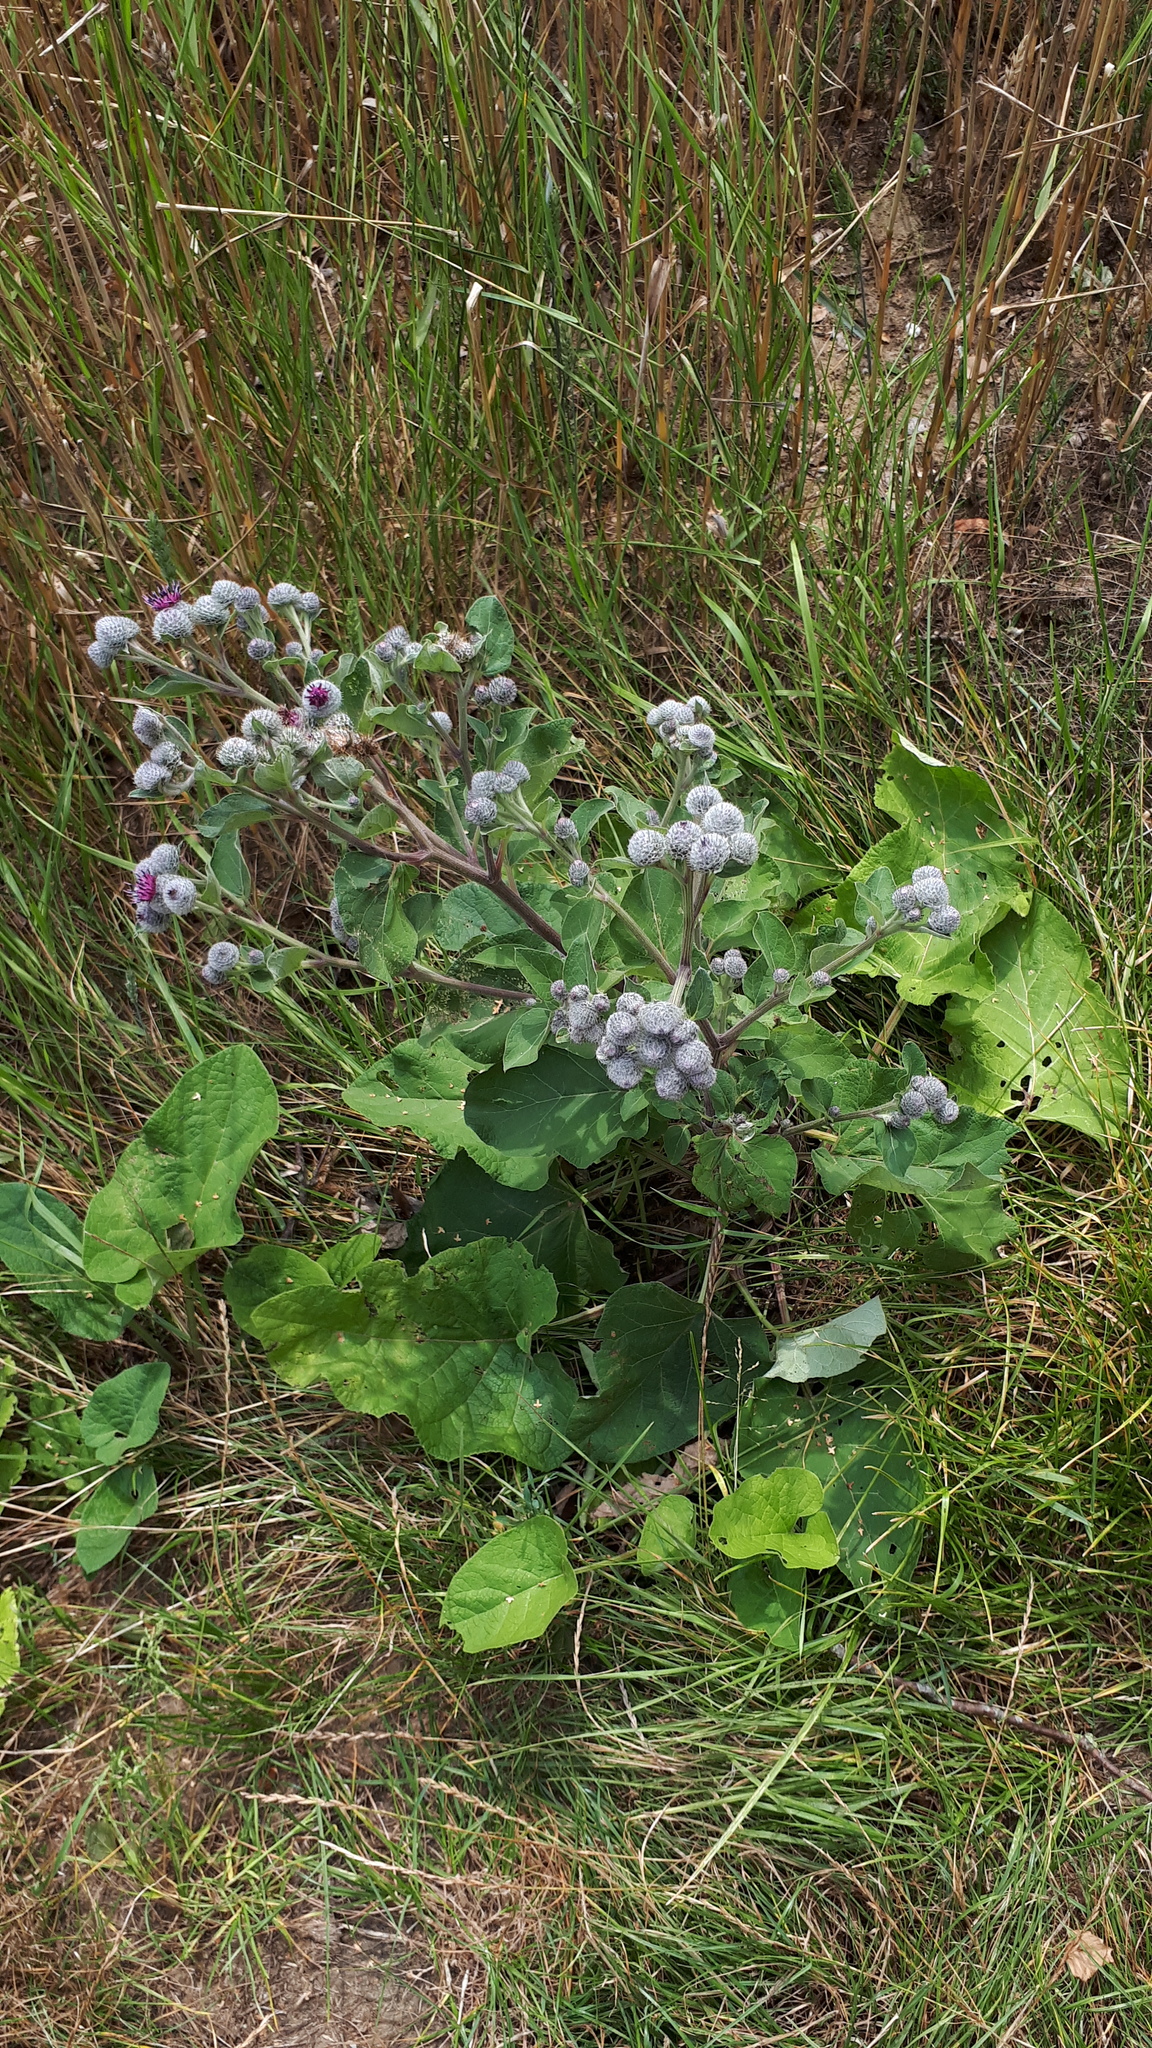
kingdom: Plantae
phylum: Tracheophyta
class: Magnoliopsida
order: Asterales
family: Asteraceae
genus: Arctium
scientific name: Arctium tomentosum
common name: Woolly burdock
